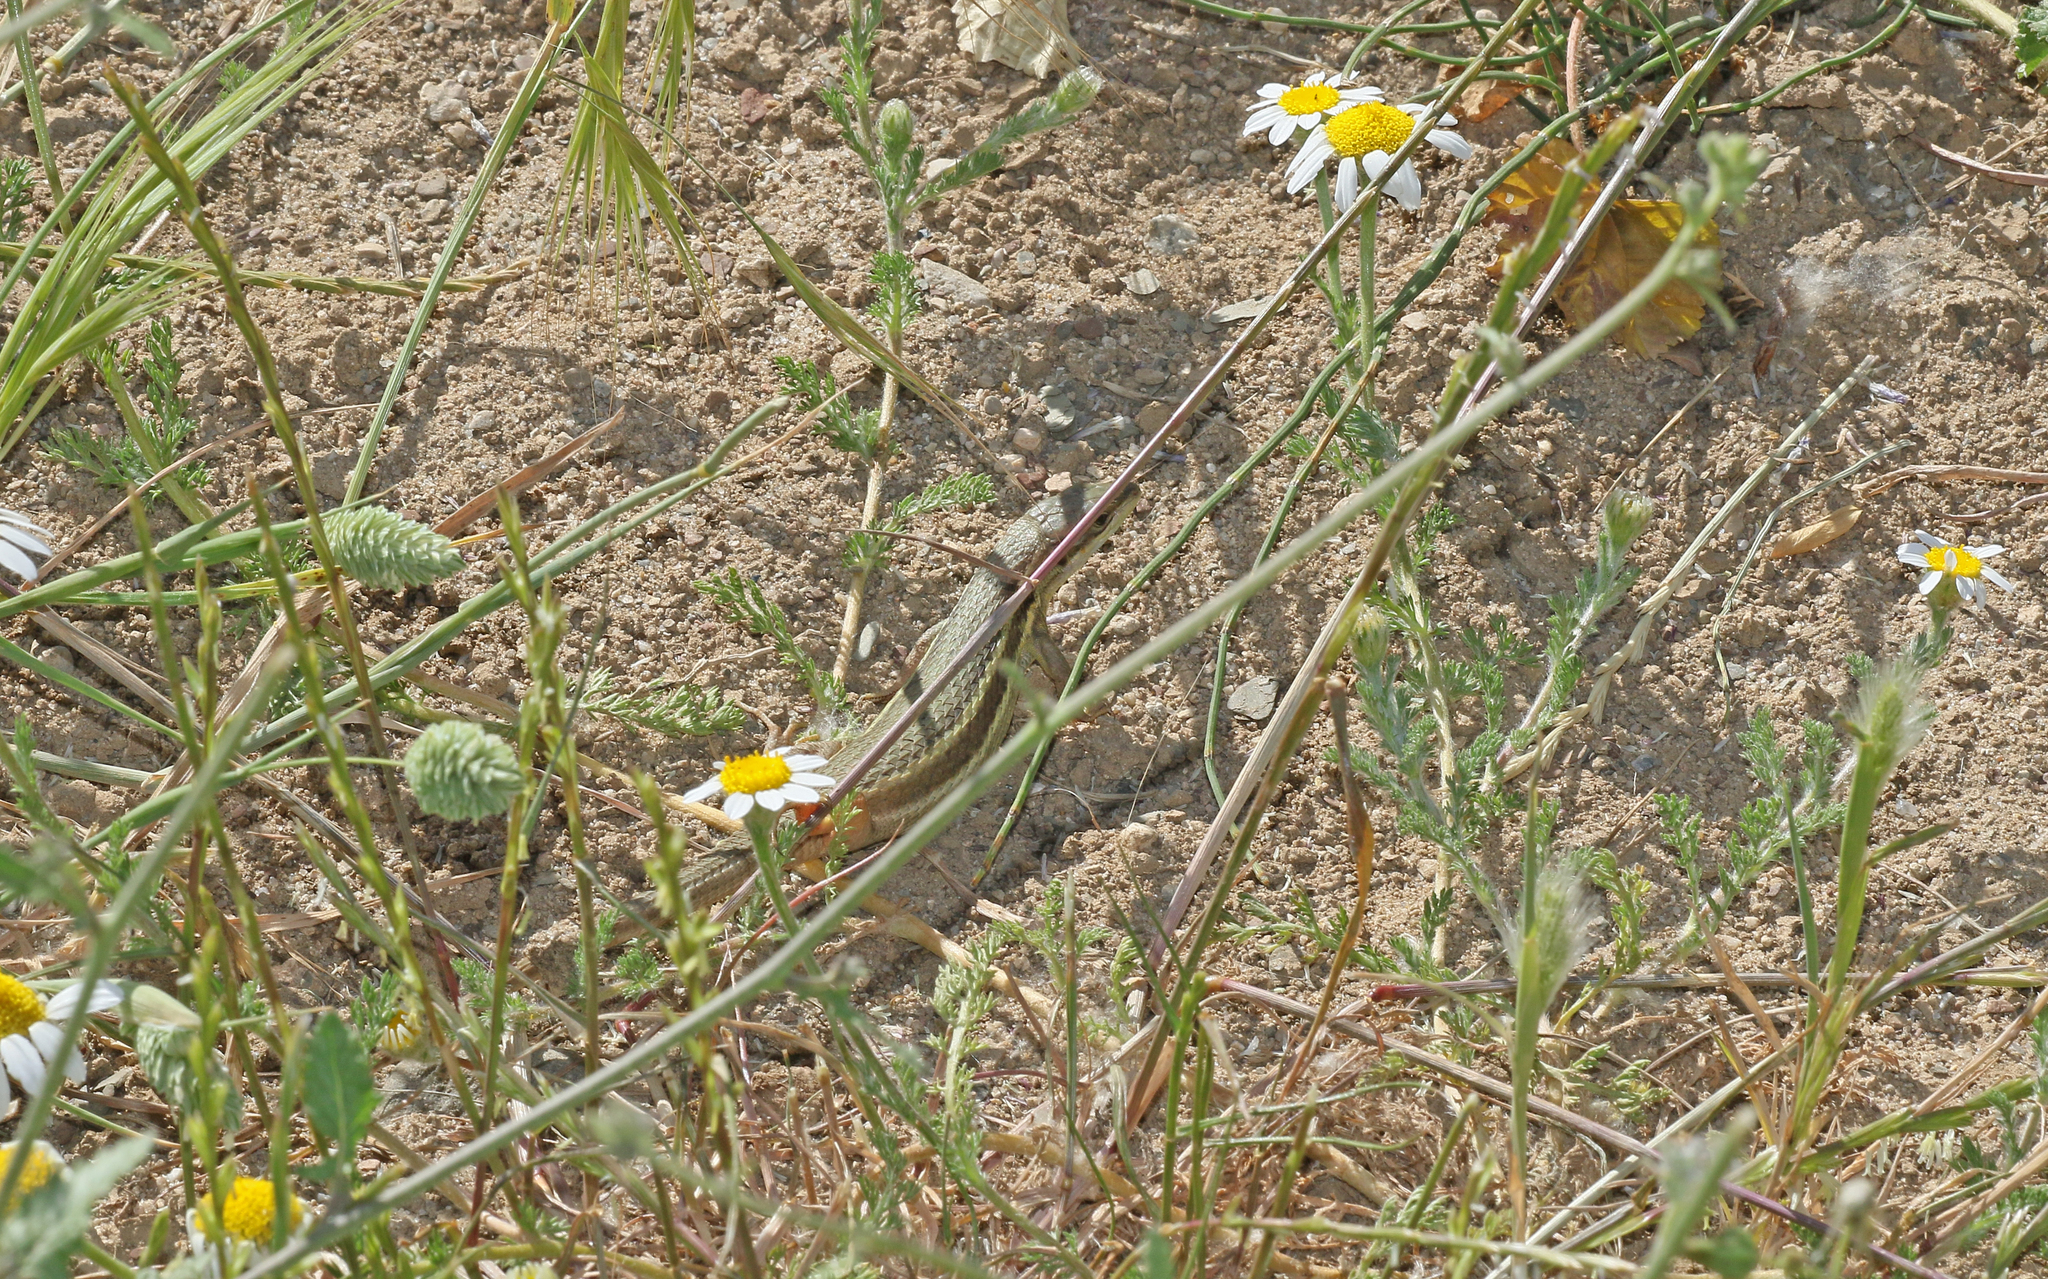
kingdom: Animalia
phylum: Chordata
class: Squamata
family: Lacertidae
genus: Psammodromus
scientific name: Psammodromus algirus
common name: Algerian psammodromus
